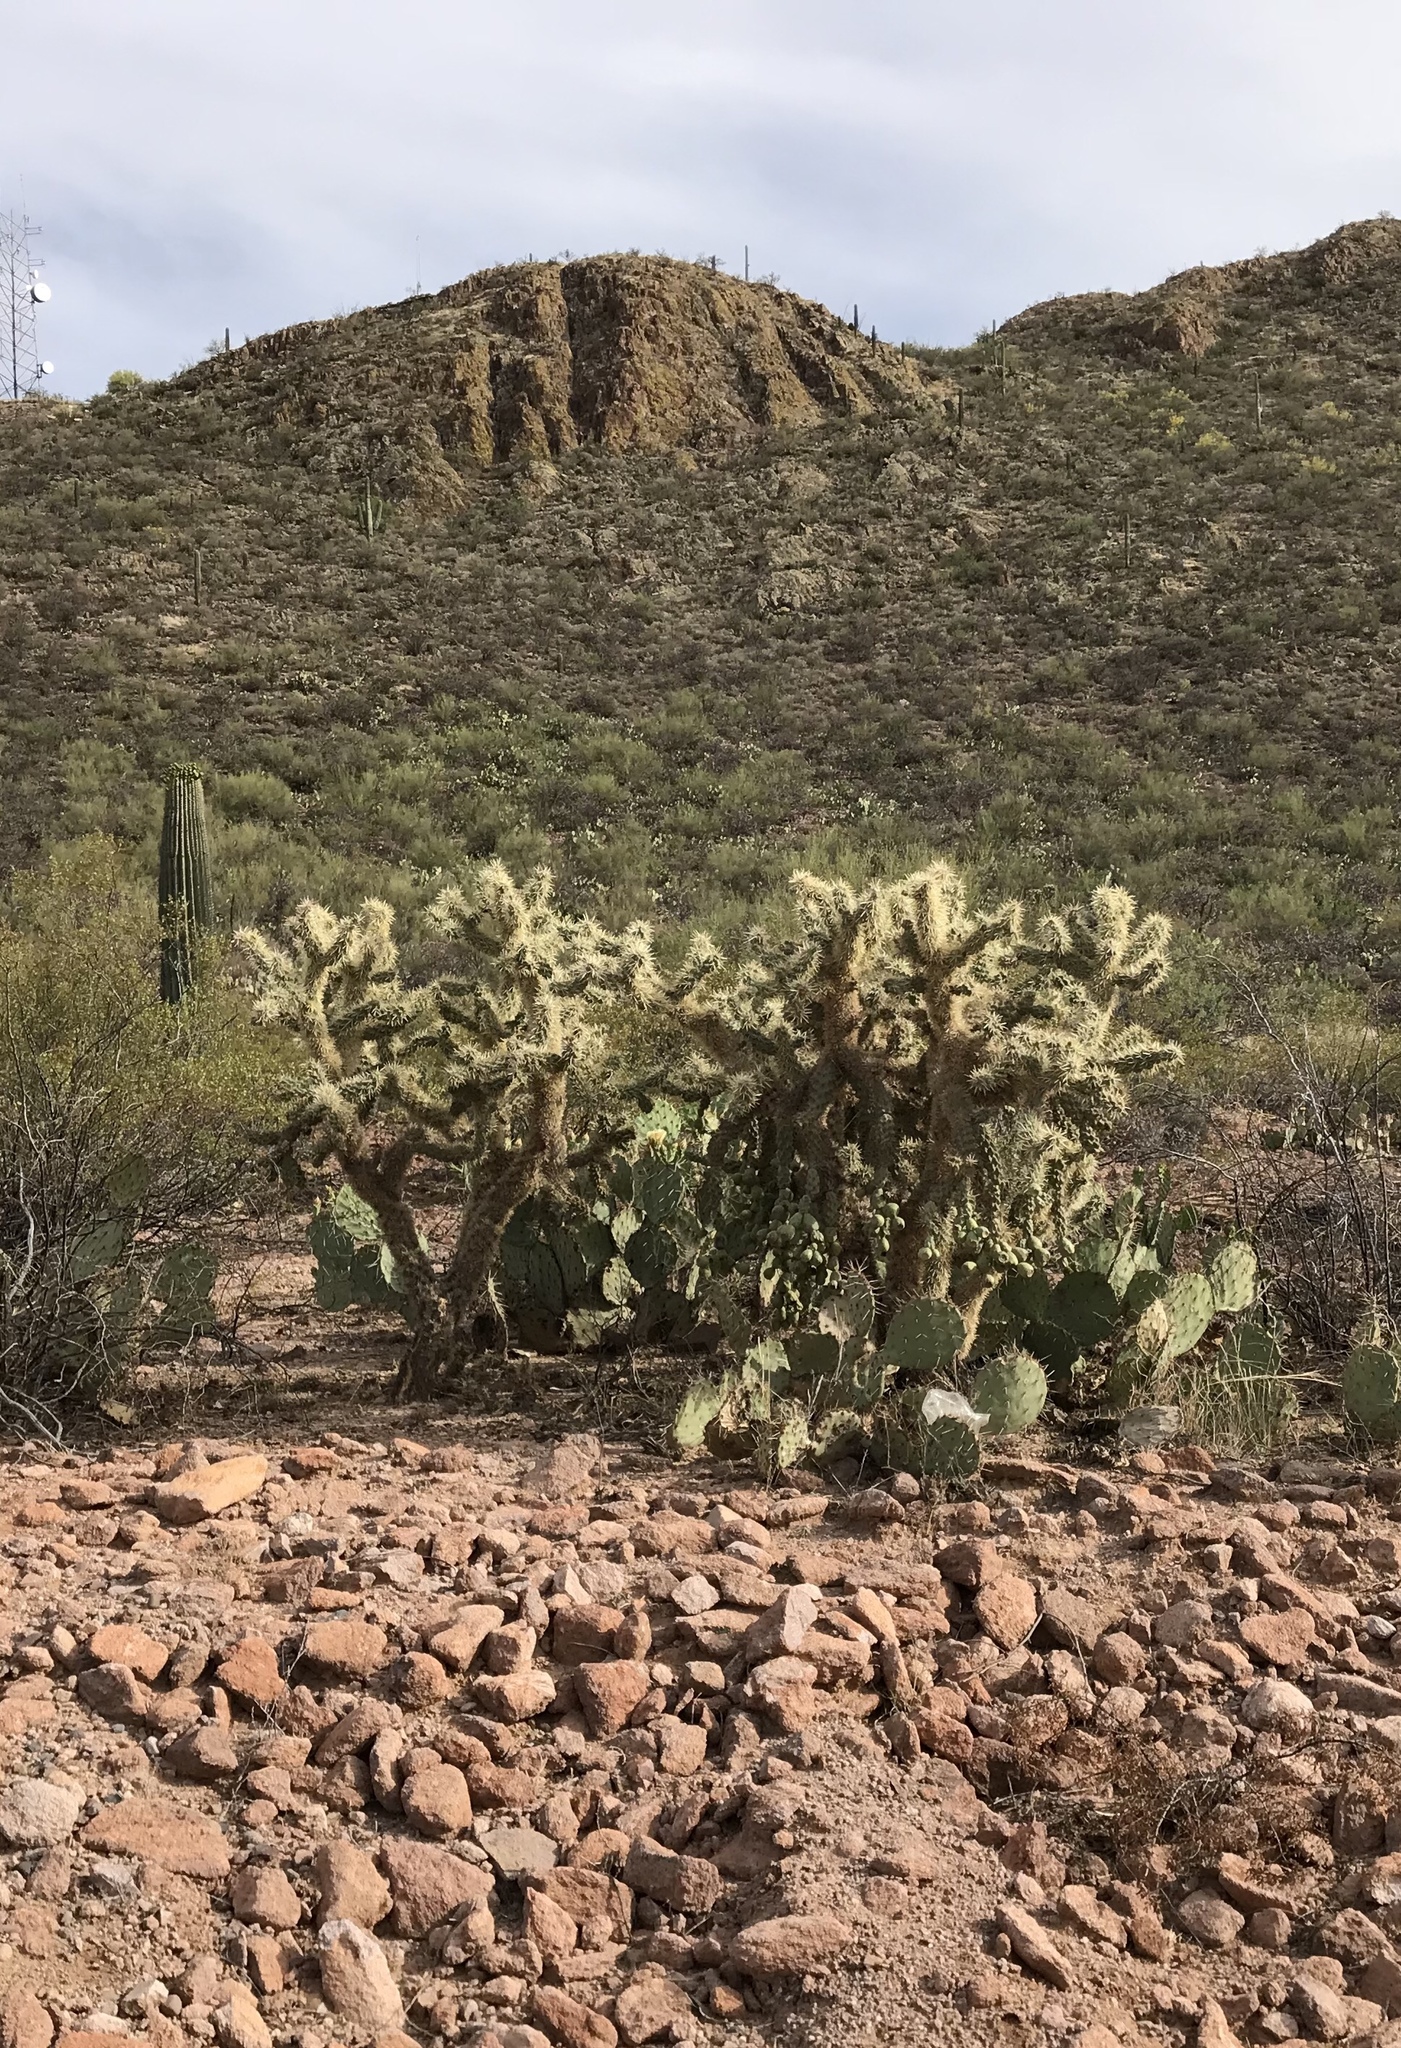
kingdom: Plantae
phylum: Tracheophyta
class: Magnoliopsida
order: Caryophyllales
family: Cactaceae
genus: Cylindropuntia
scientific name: Cylindropuntia fulgida
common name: Jumping cholla
